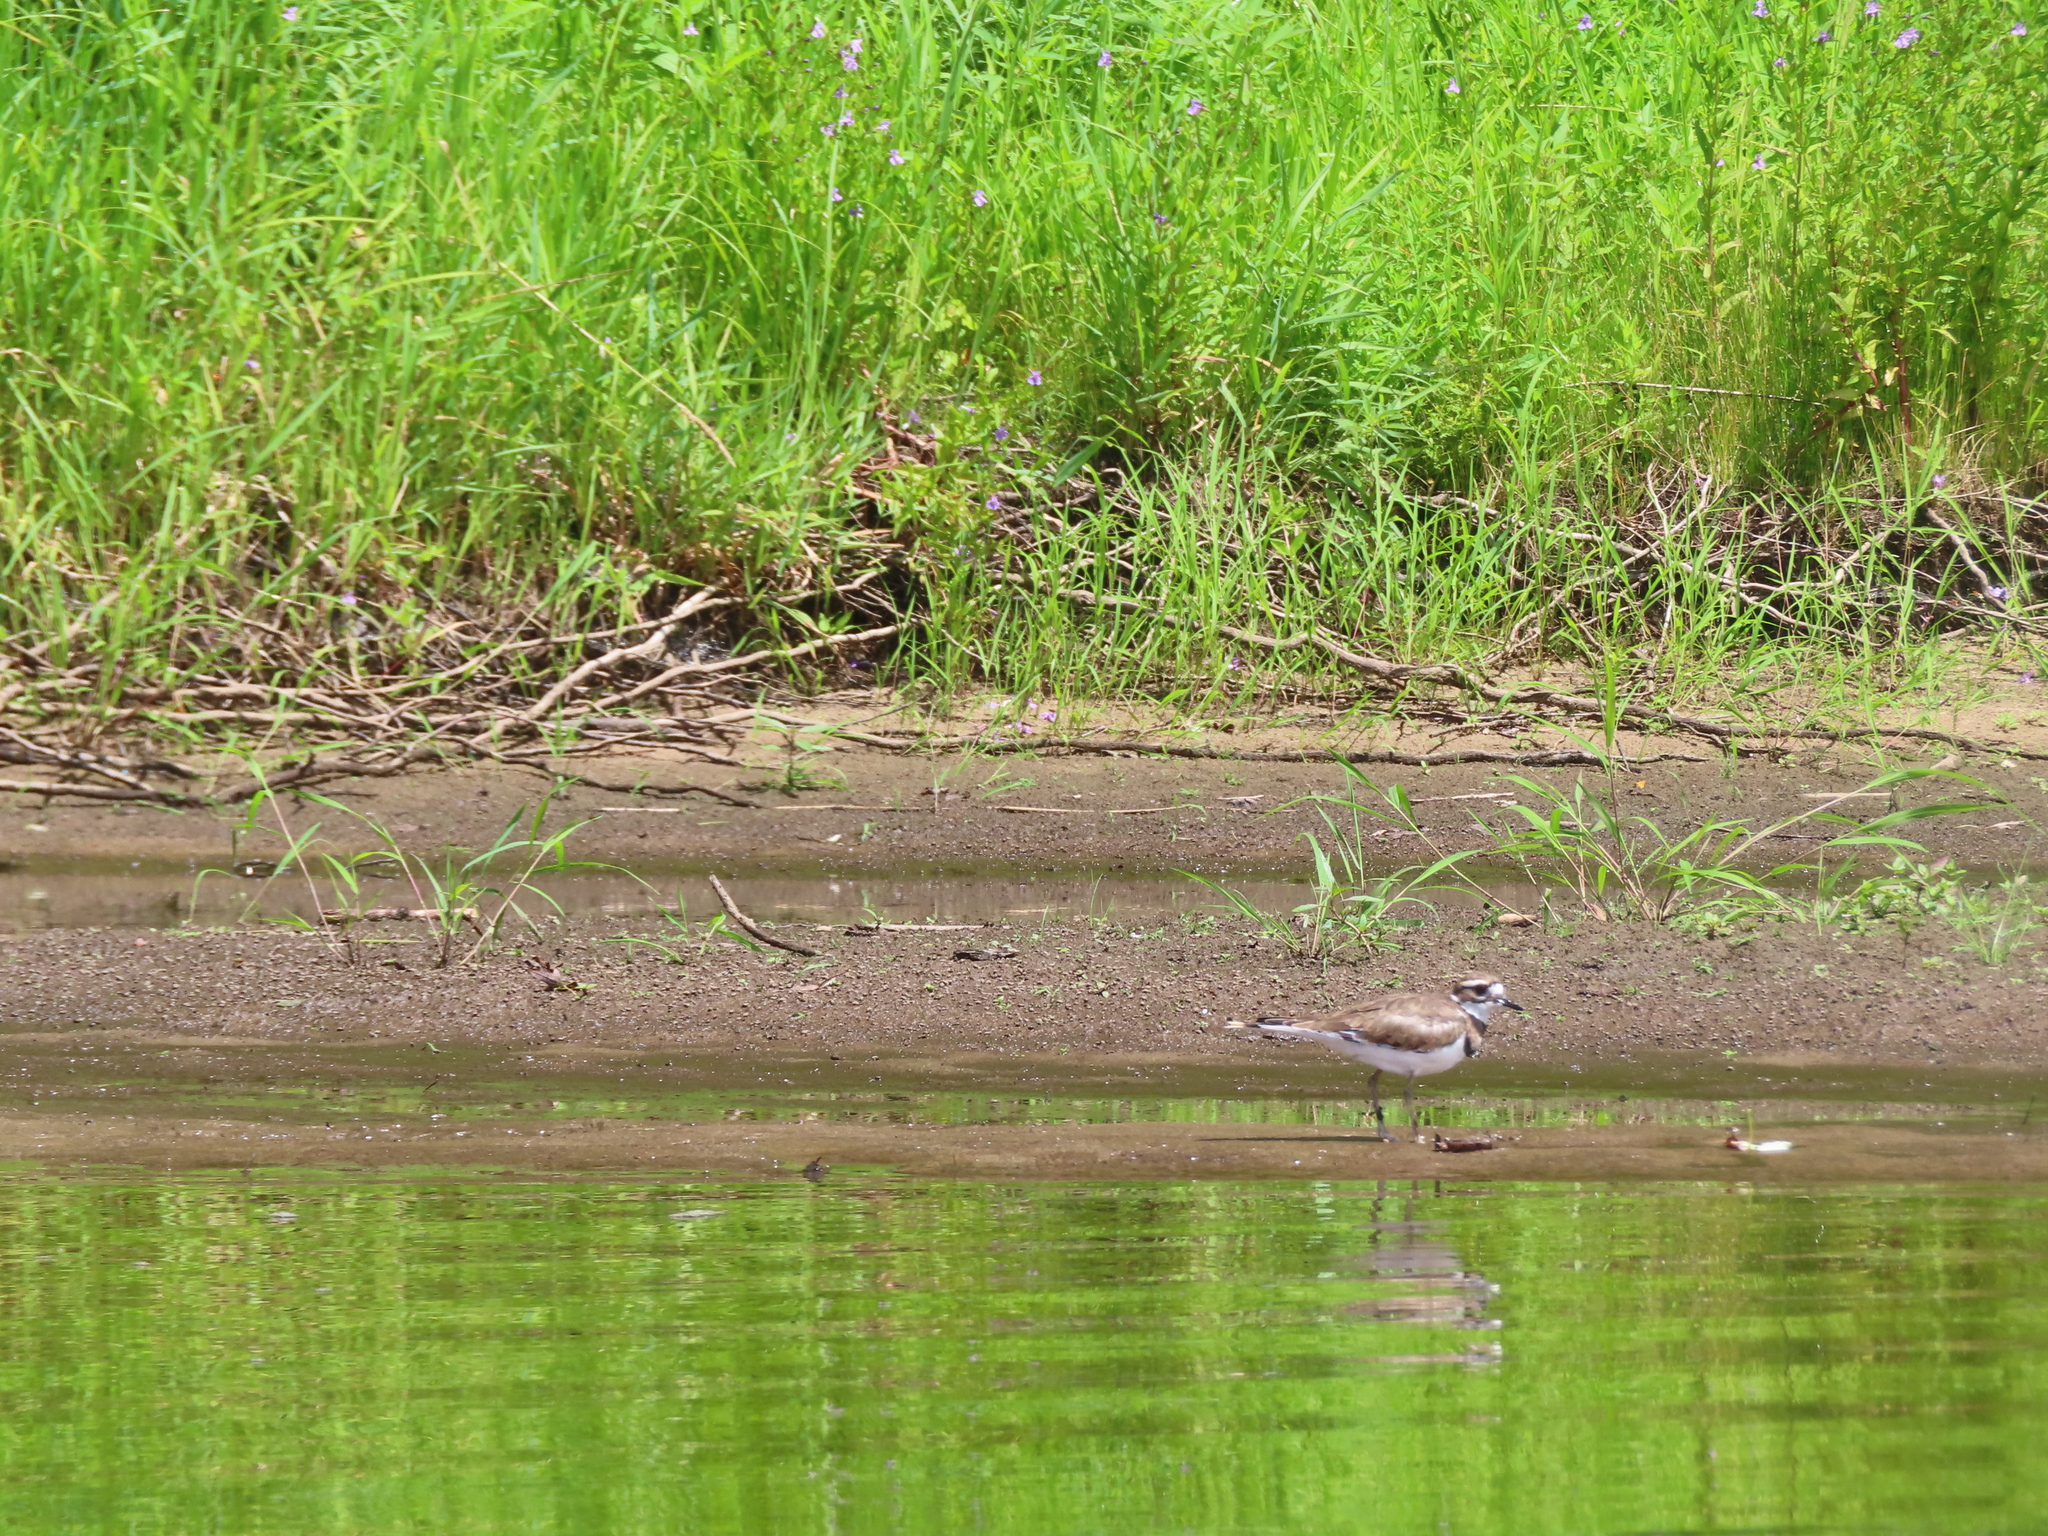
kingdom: Animalia
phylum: Chordata
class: Aves
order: Charadriiformes
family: Charadriidae
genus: Charadrius
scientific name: Charadrius vociferus
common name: Killdeer
